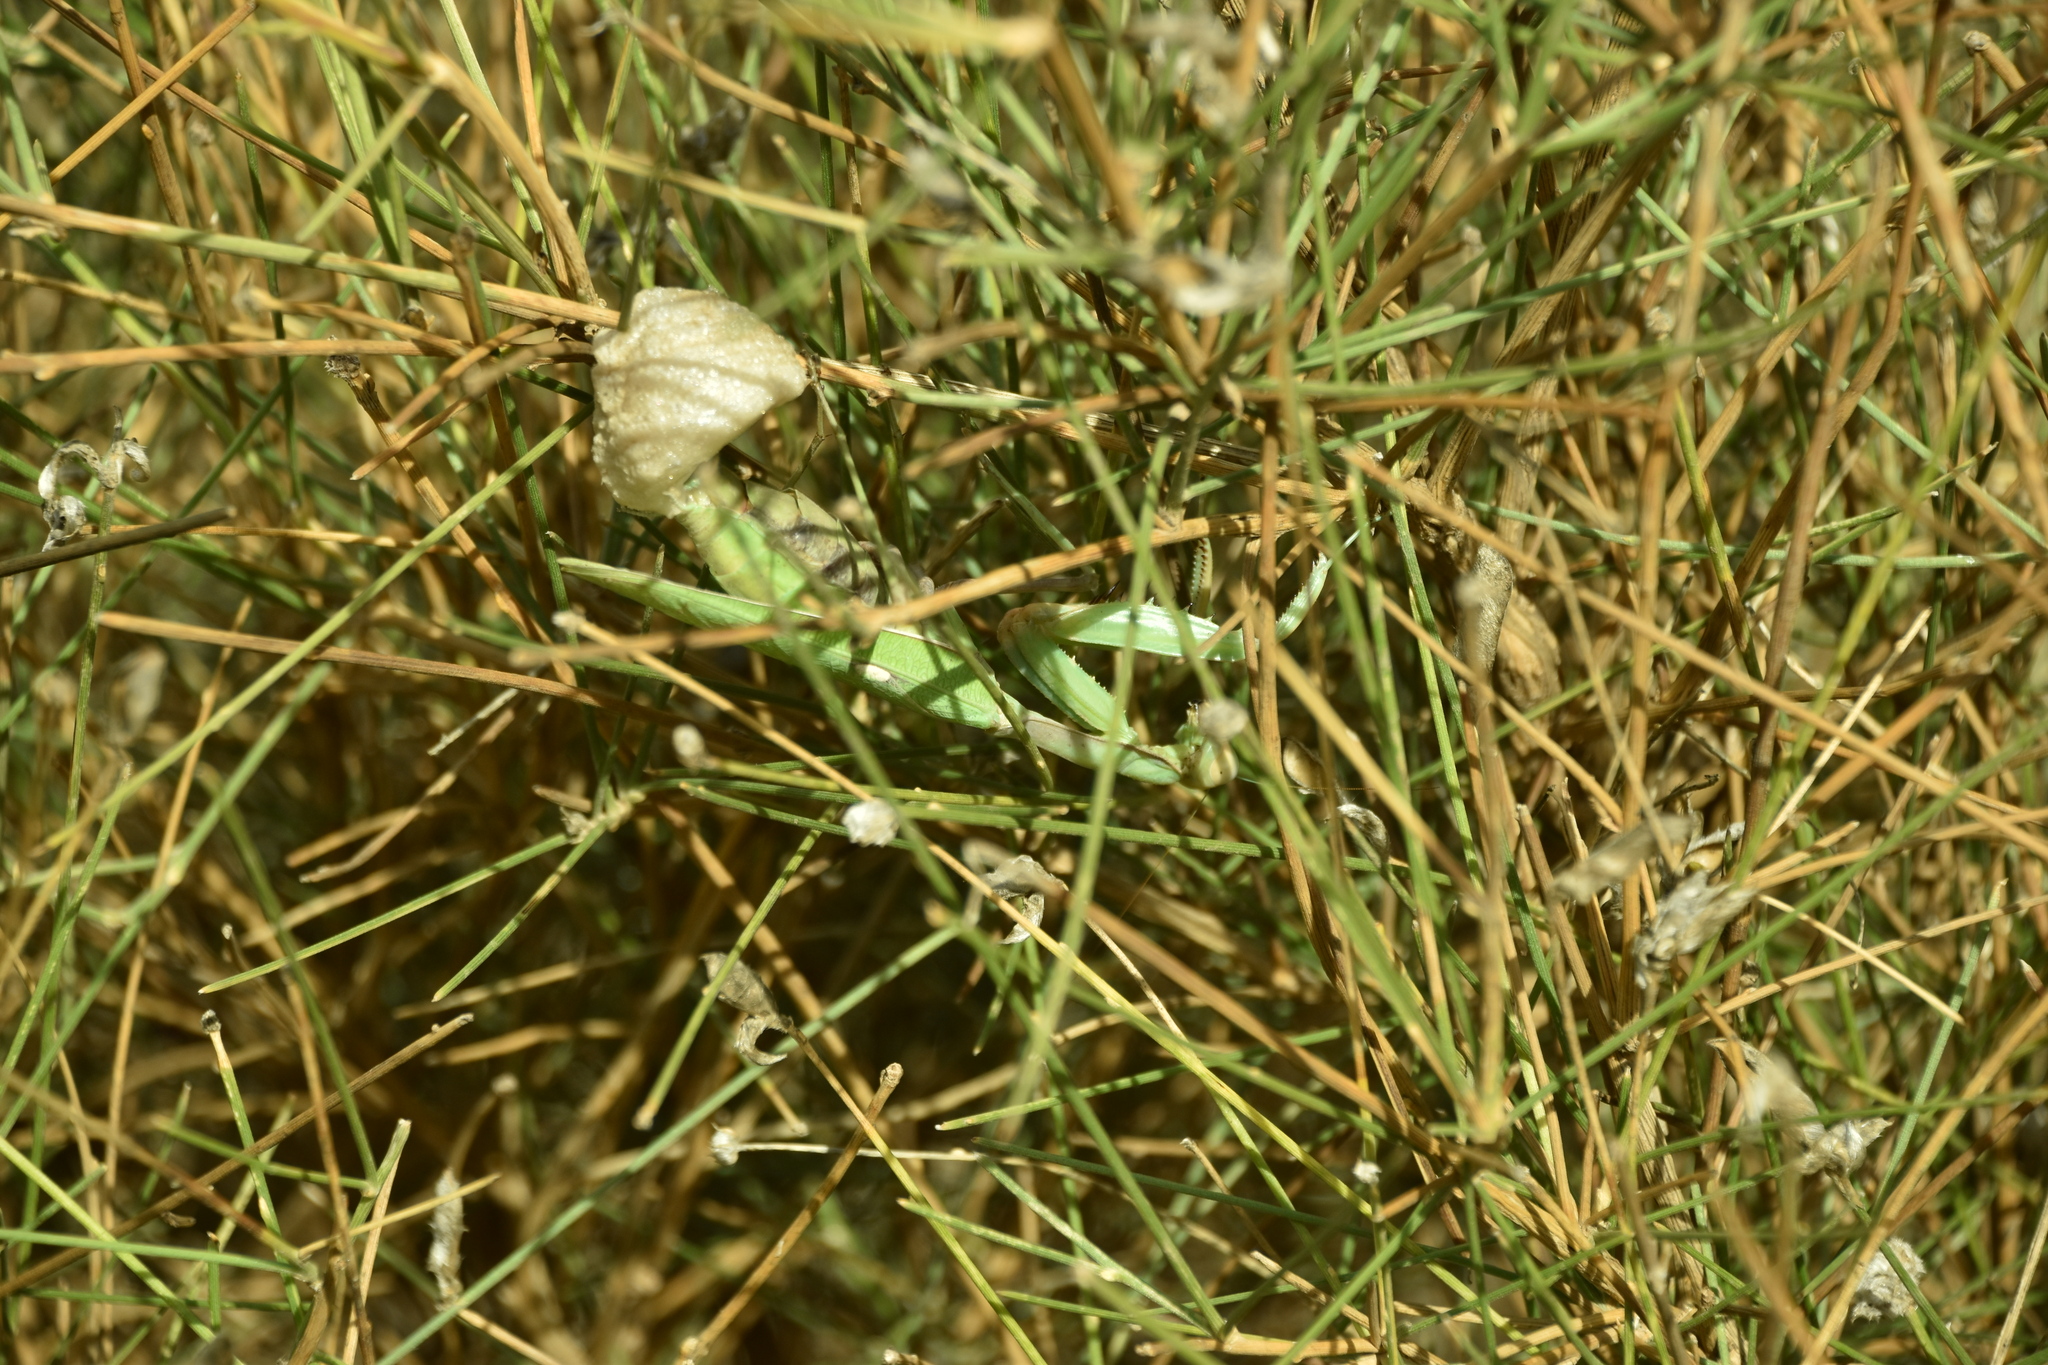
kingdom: Animalia
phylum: Arthropoda
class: Insecta
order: Mantodea
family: Mantidae
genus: Sphodromantis
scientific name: Sphodromantis viridis
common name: Giant african mantis
